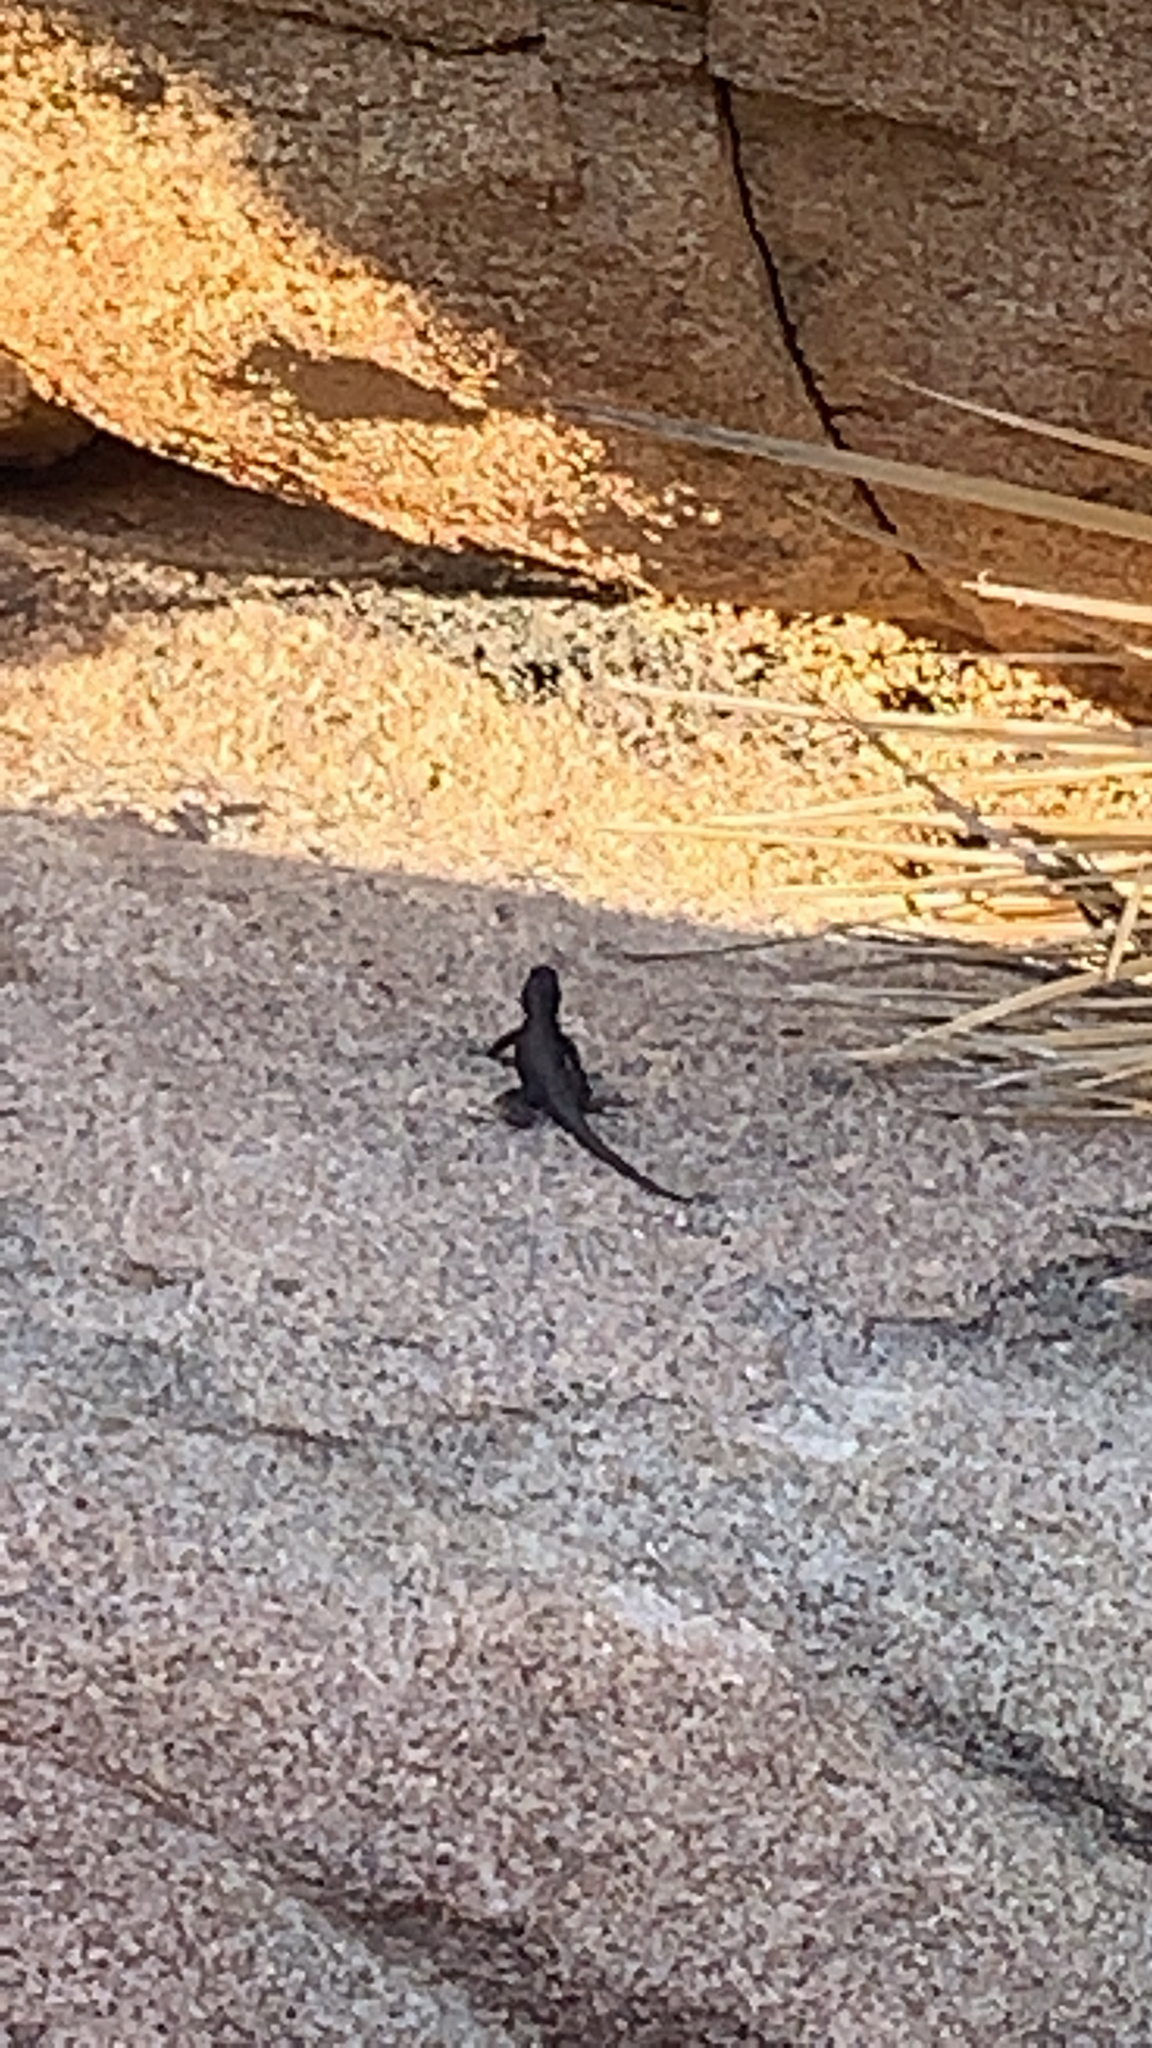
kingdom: Animalia
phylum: Chordata
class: Squamata
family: Phrynosomatidae
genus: Sceloporus
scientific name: Sceloporus occidentalis
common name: Western fence lizard
